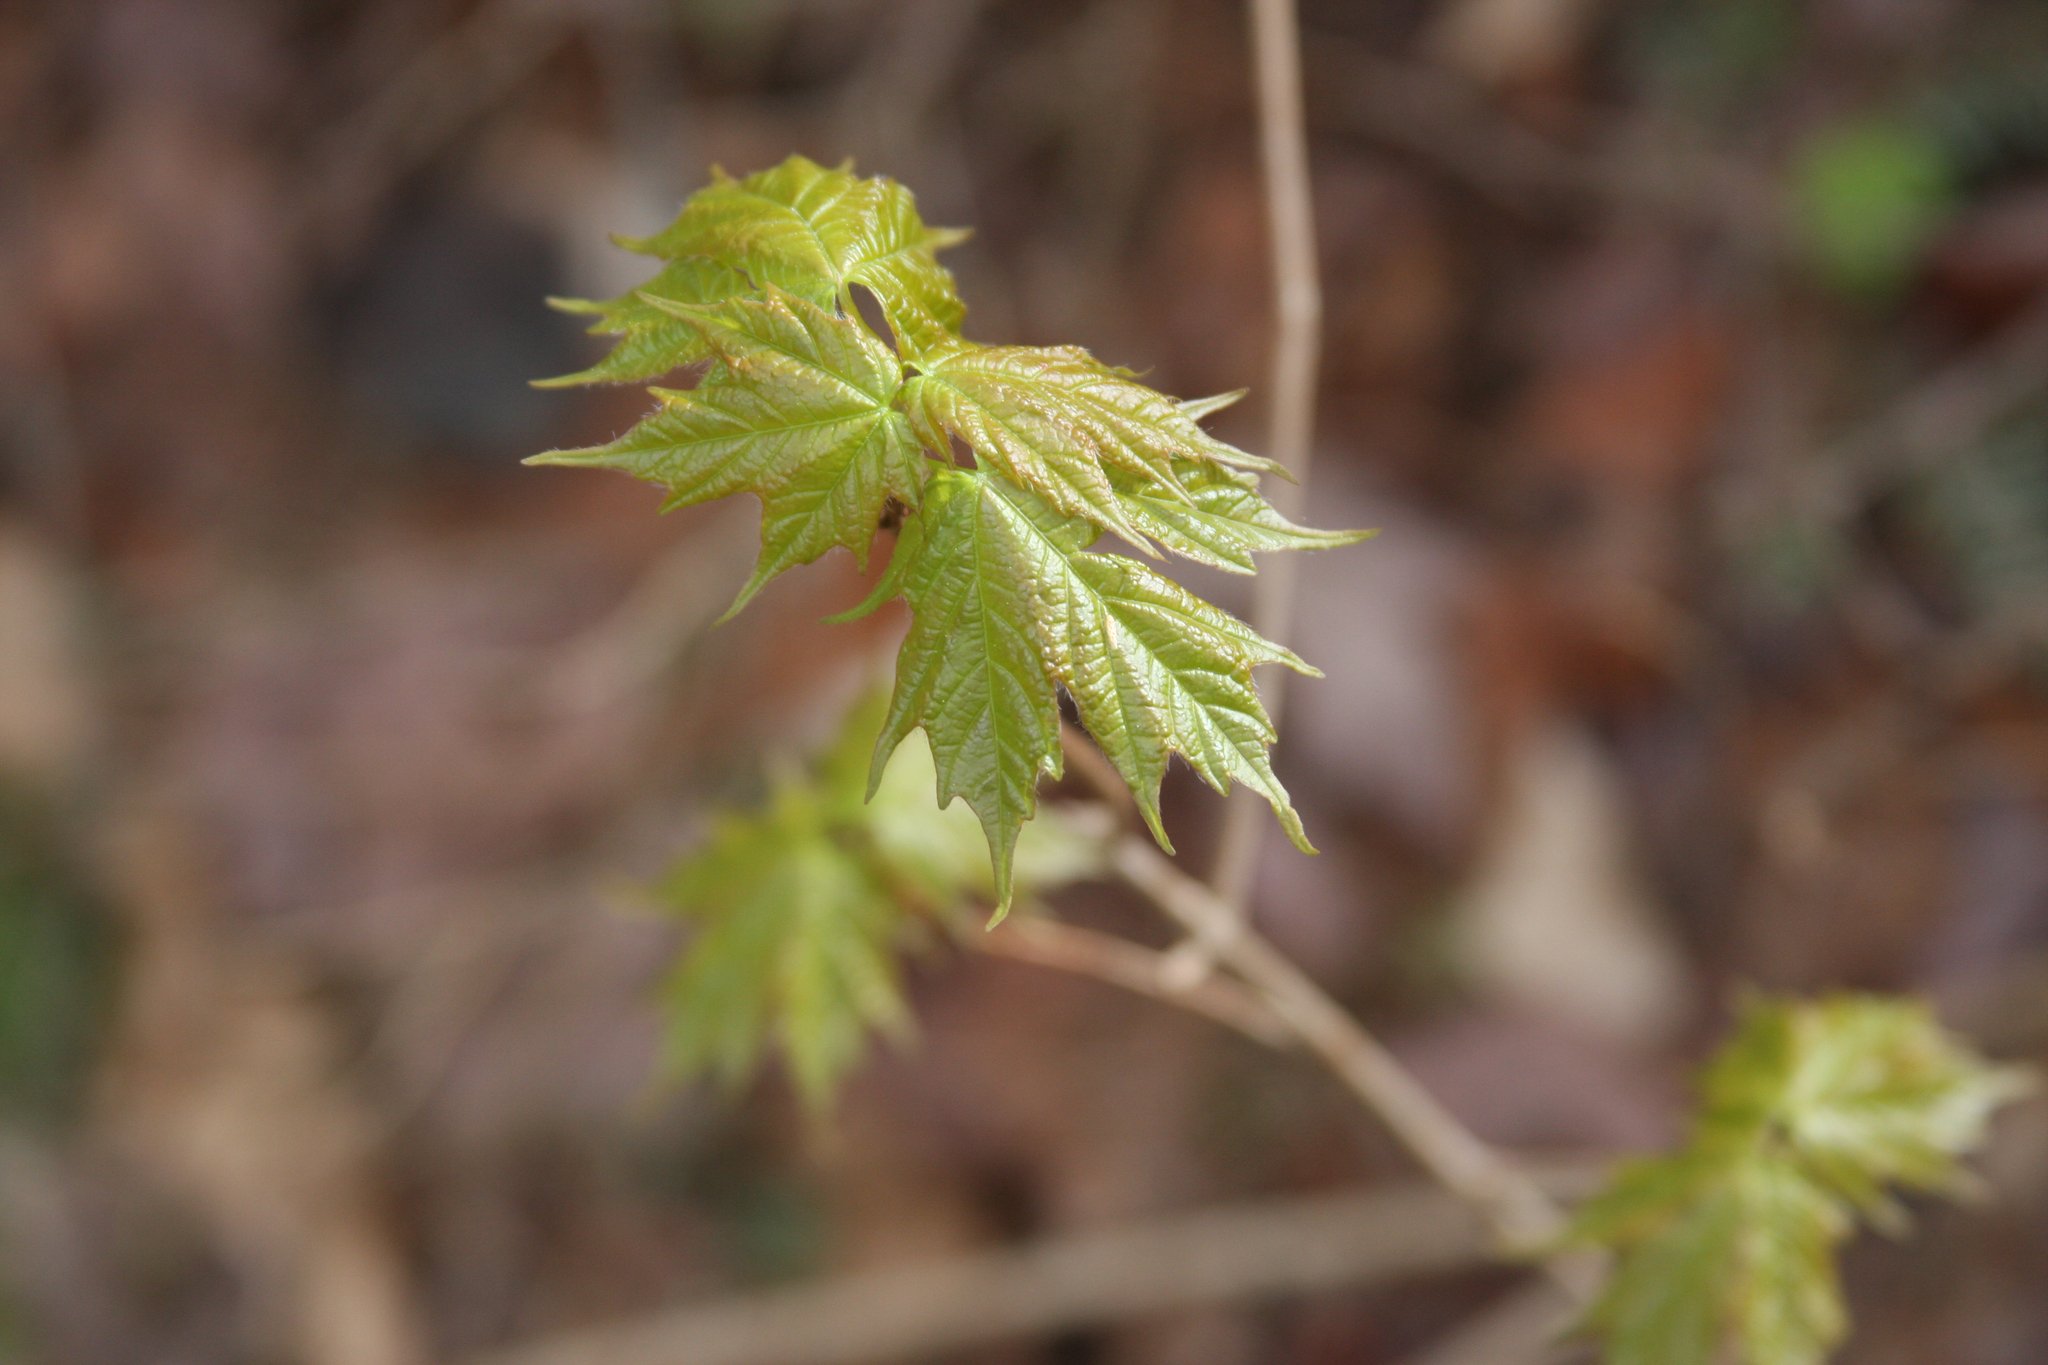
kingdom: Plantae
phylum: Tracheophyta
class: Magnoliopsida
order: Sapindales
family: Sapindaceae
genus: Acer
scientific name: Acer saccharum
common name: Sugar maple
